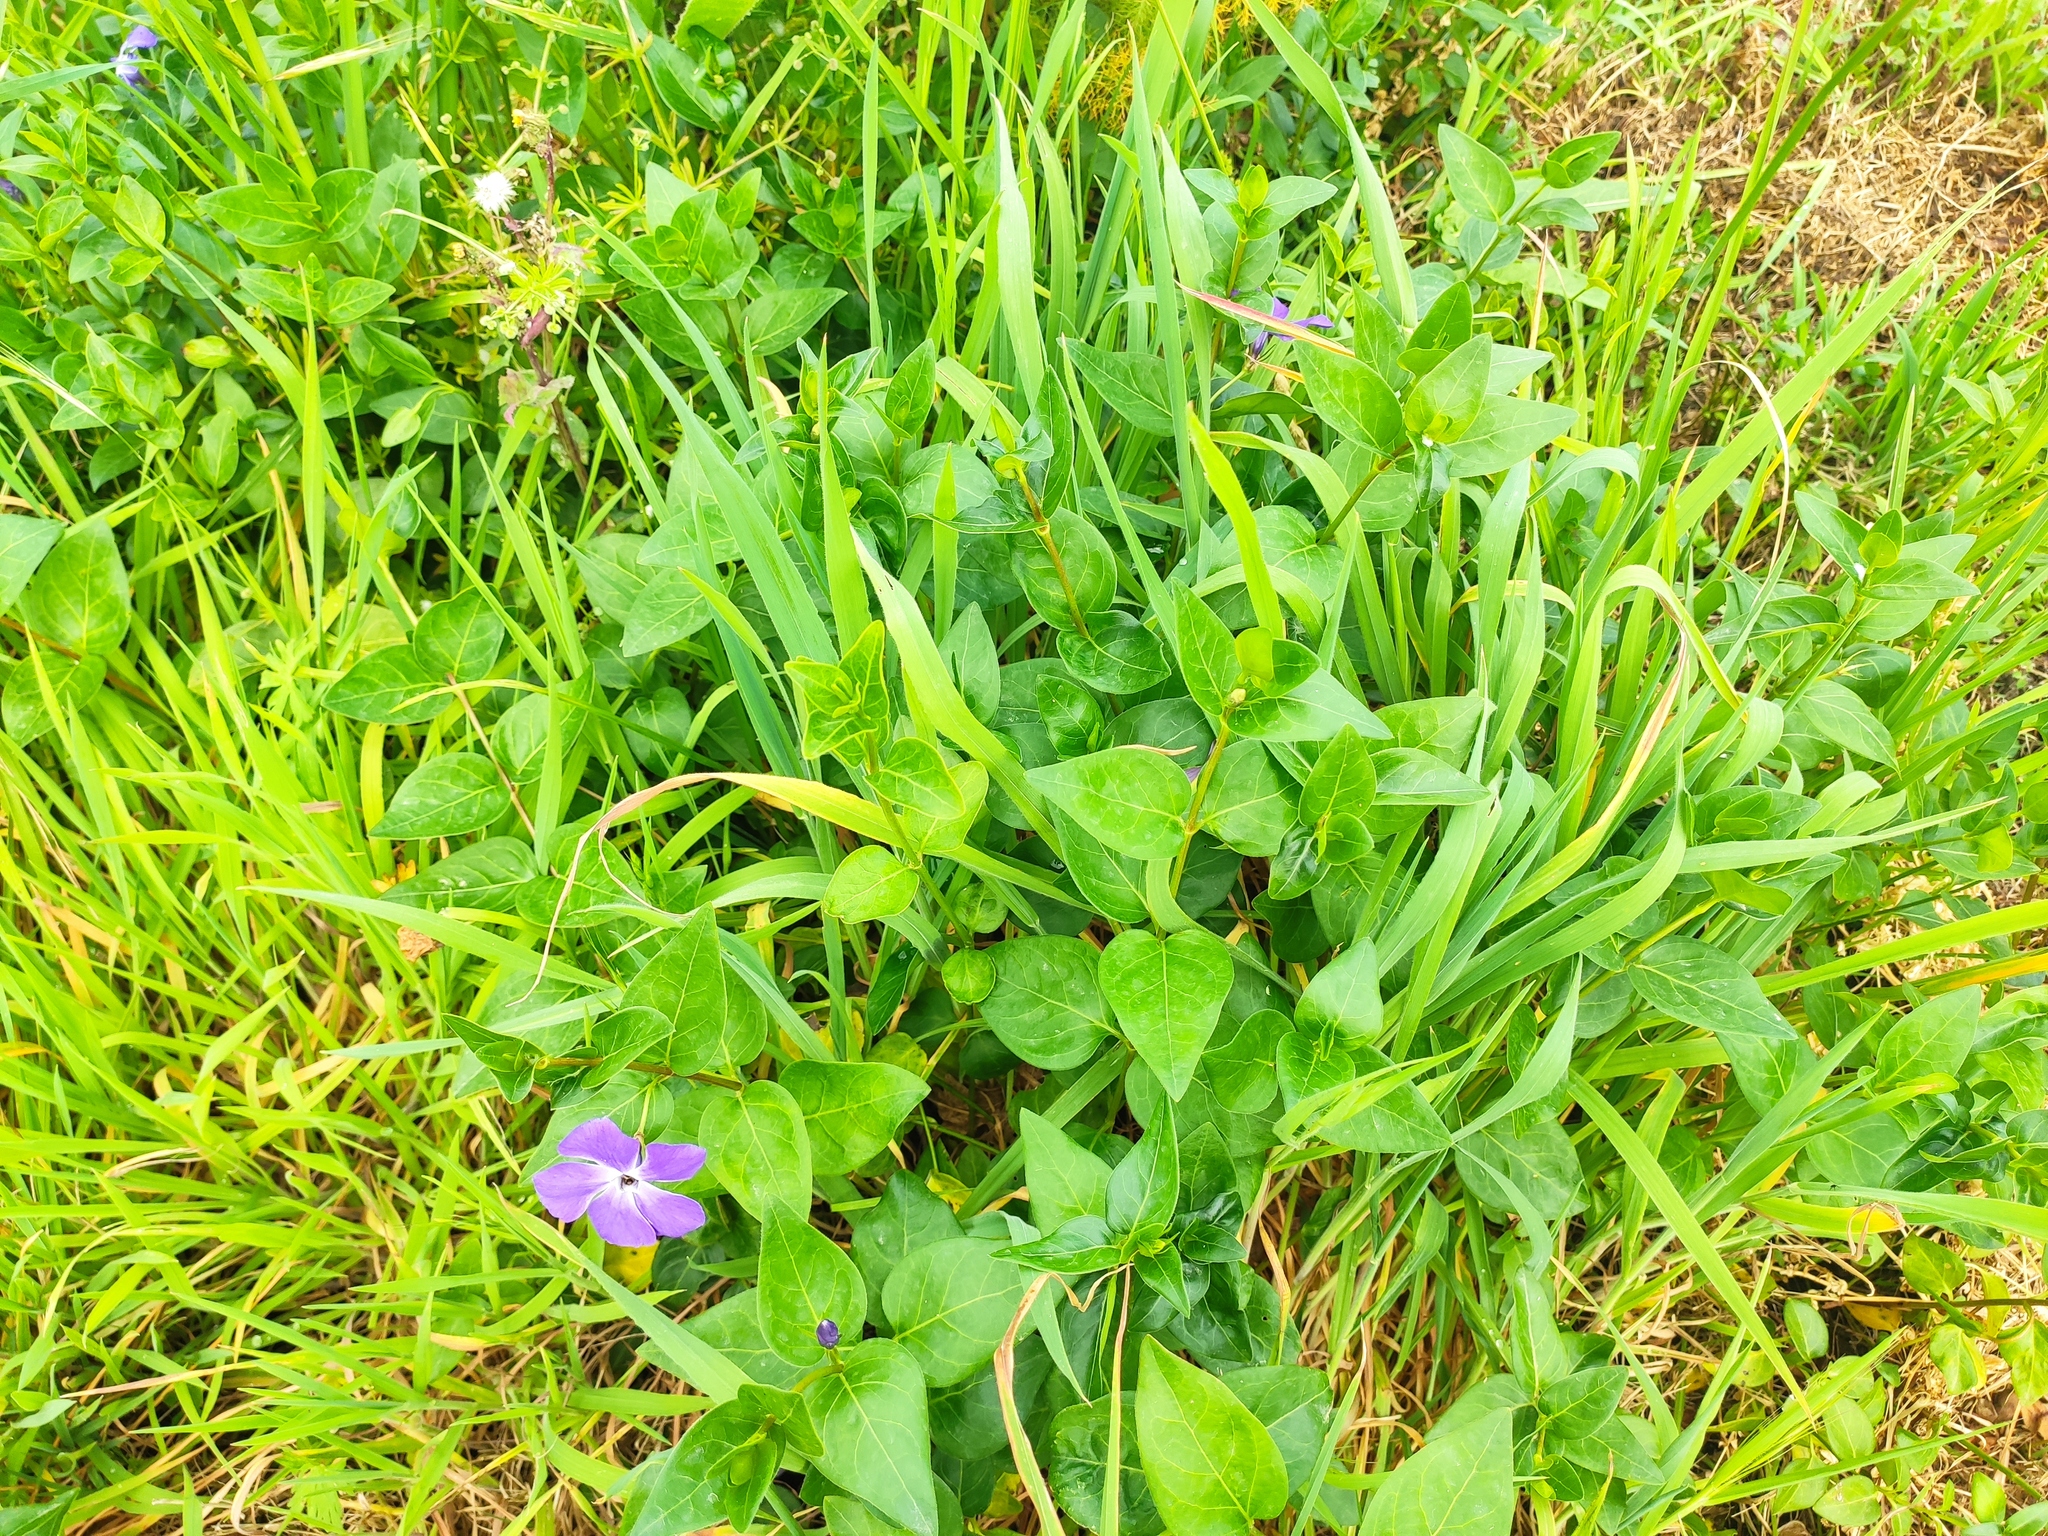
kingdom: Plantae
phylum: Tracheophyta
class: Magnoliopsida
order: Gentianales
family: Apocynaceae
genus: Vinca
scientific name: Vinca major
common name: Greater periwinkle
